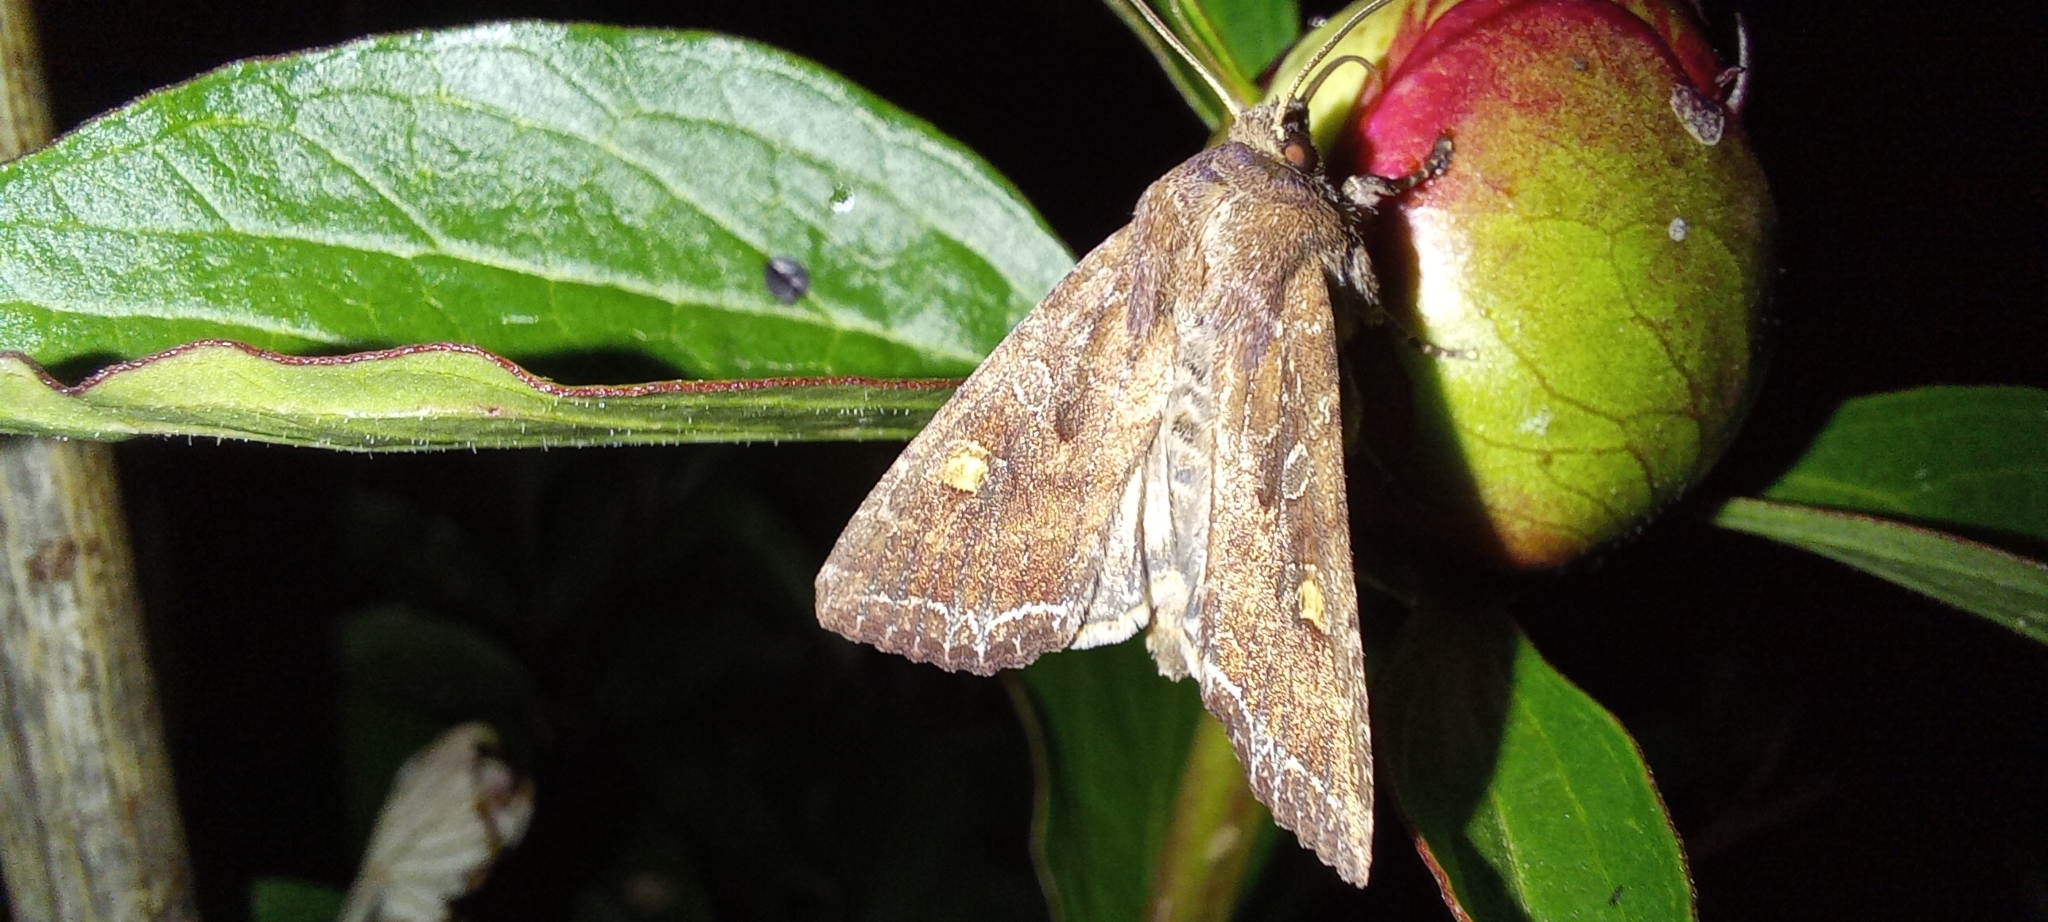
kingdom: Animalia
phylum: Arthropoda
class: Insecta
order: Lepidoptera
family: Noctuidae
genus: Lacanobia
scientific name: Lacanobia oleracea
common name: Bright-line brown-eye
